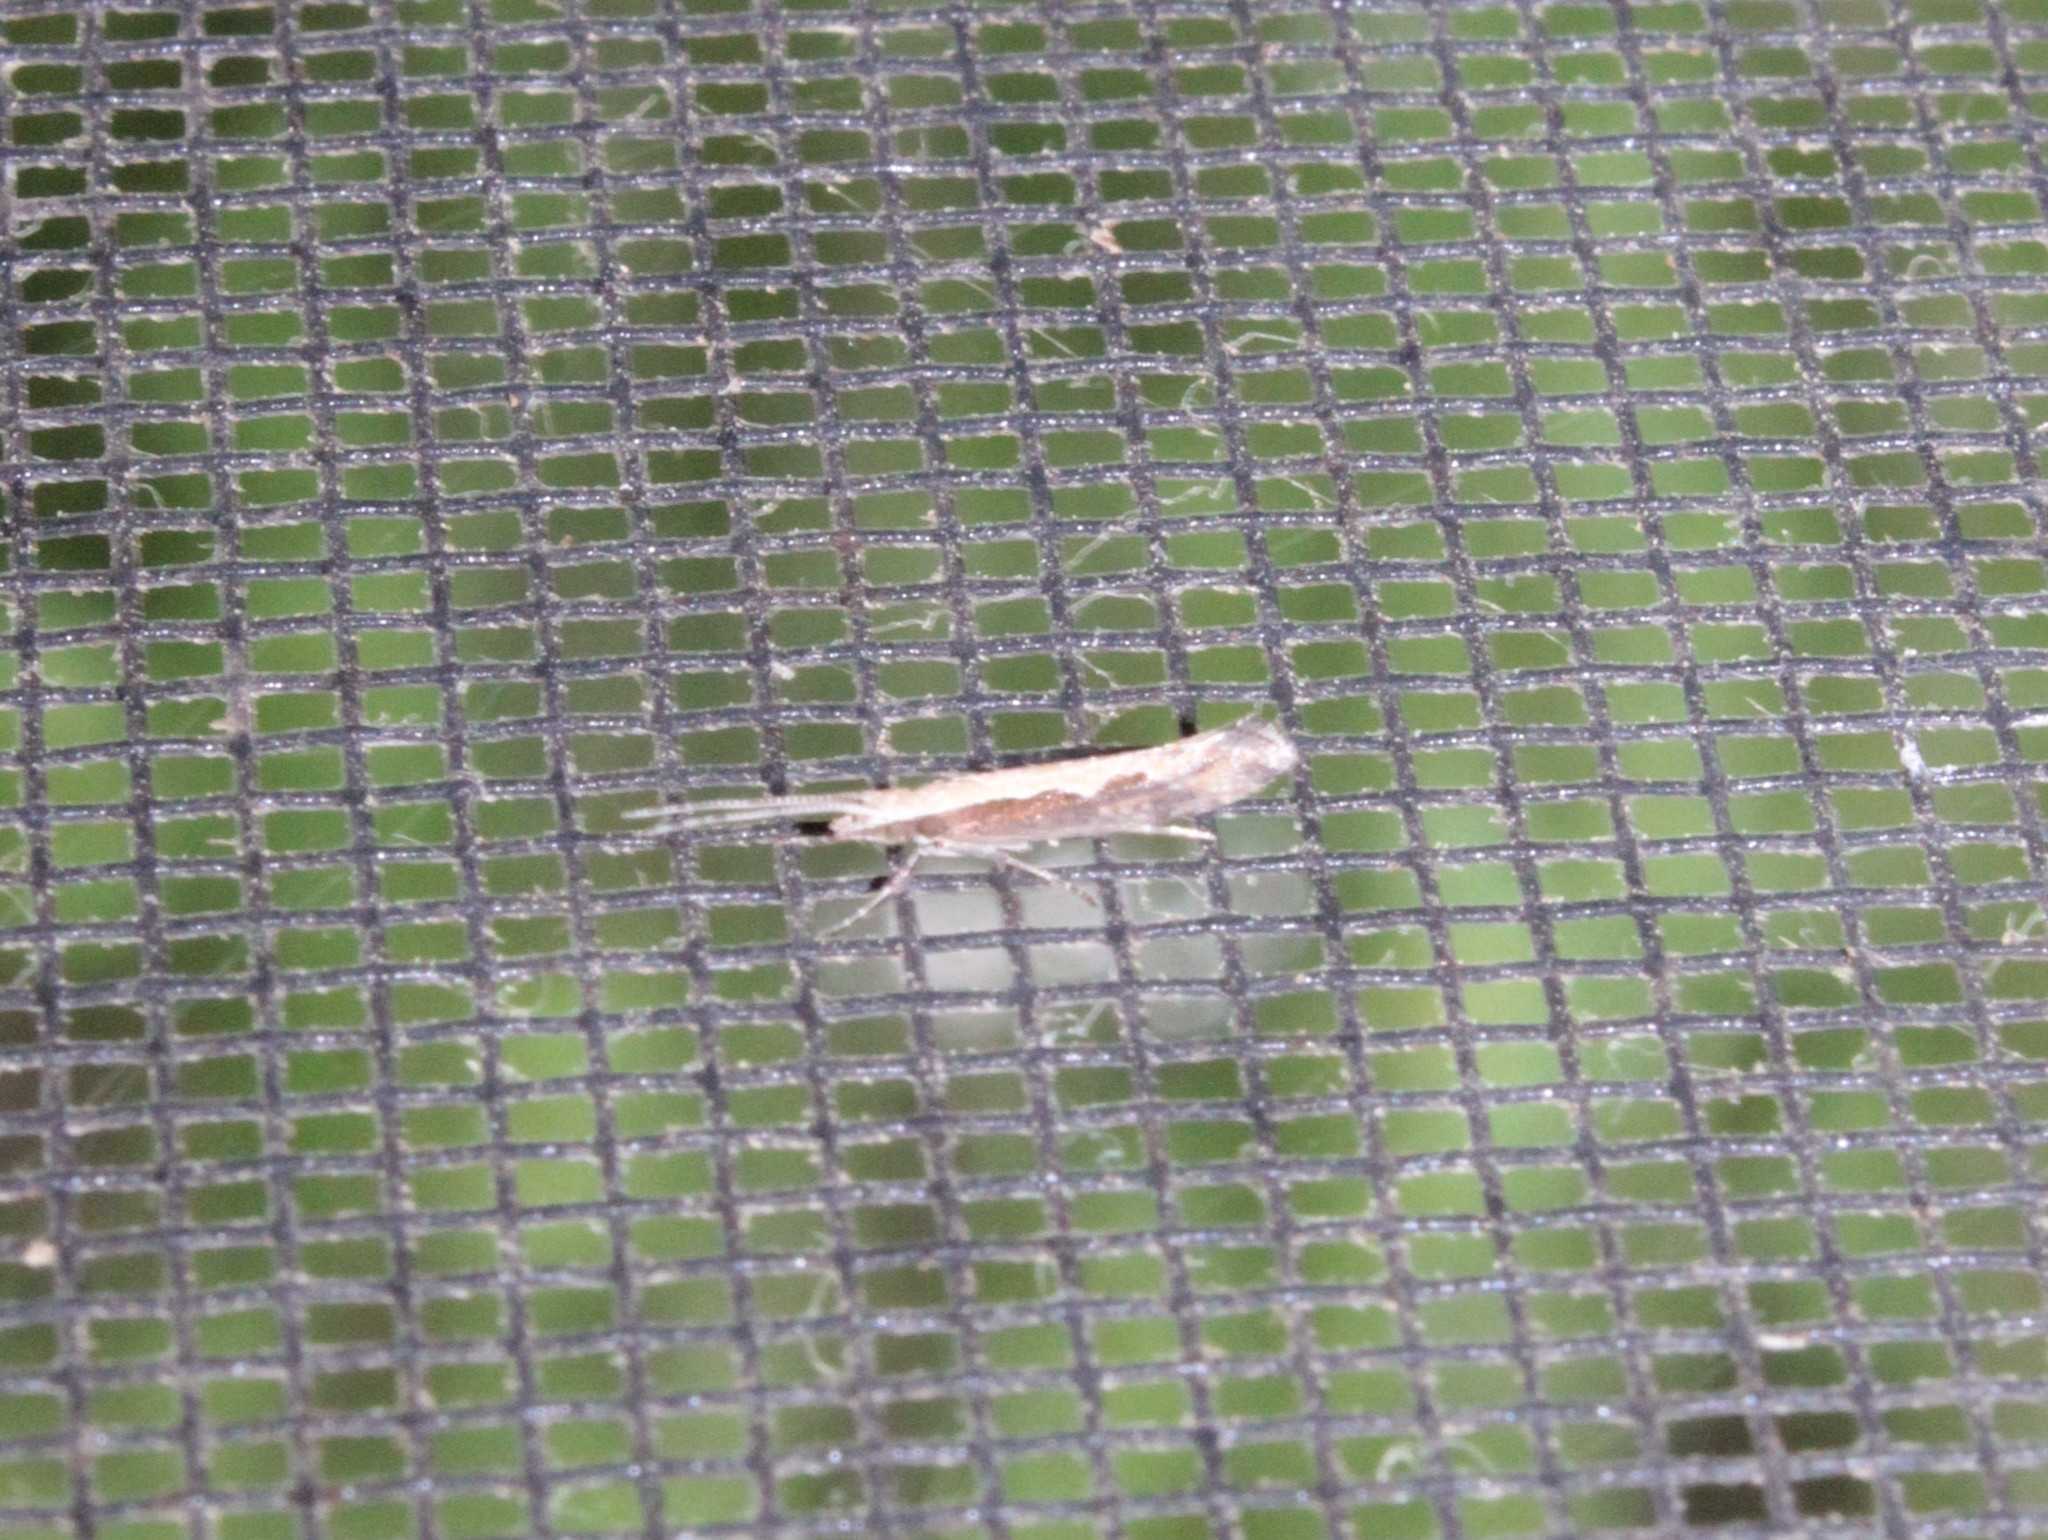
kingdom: Animalia
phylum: Arthropoda
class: Insecta
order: Lepidoptera
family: Plutellidae
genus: Plutella
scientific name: Plutella xylostella
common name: Diamond-back moth
